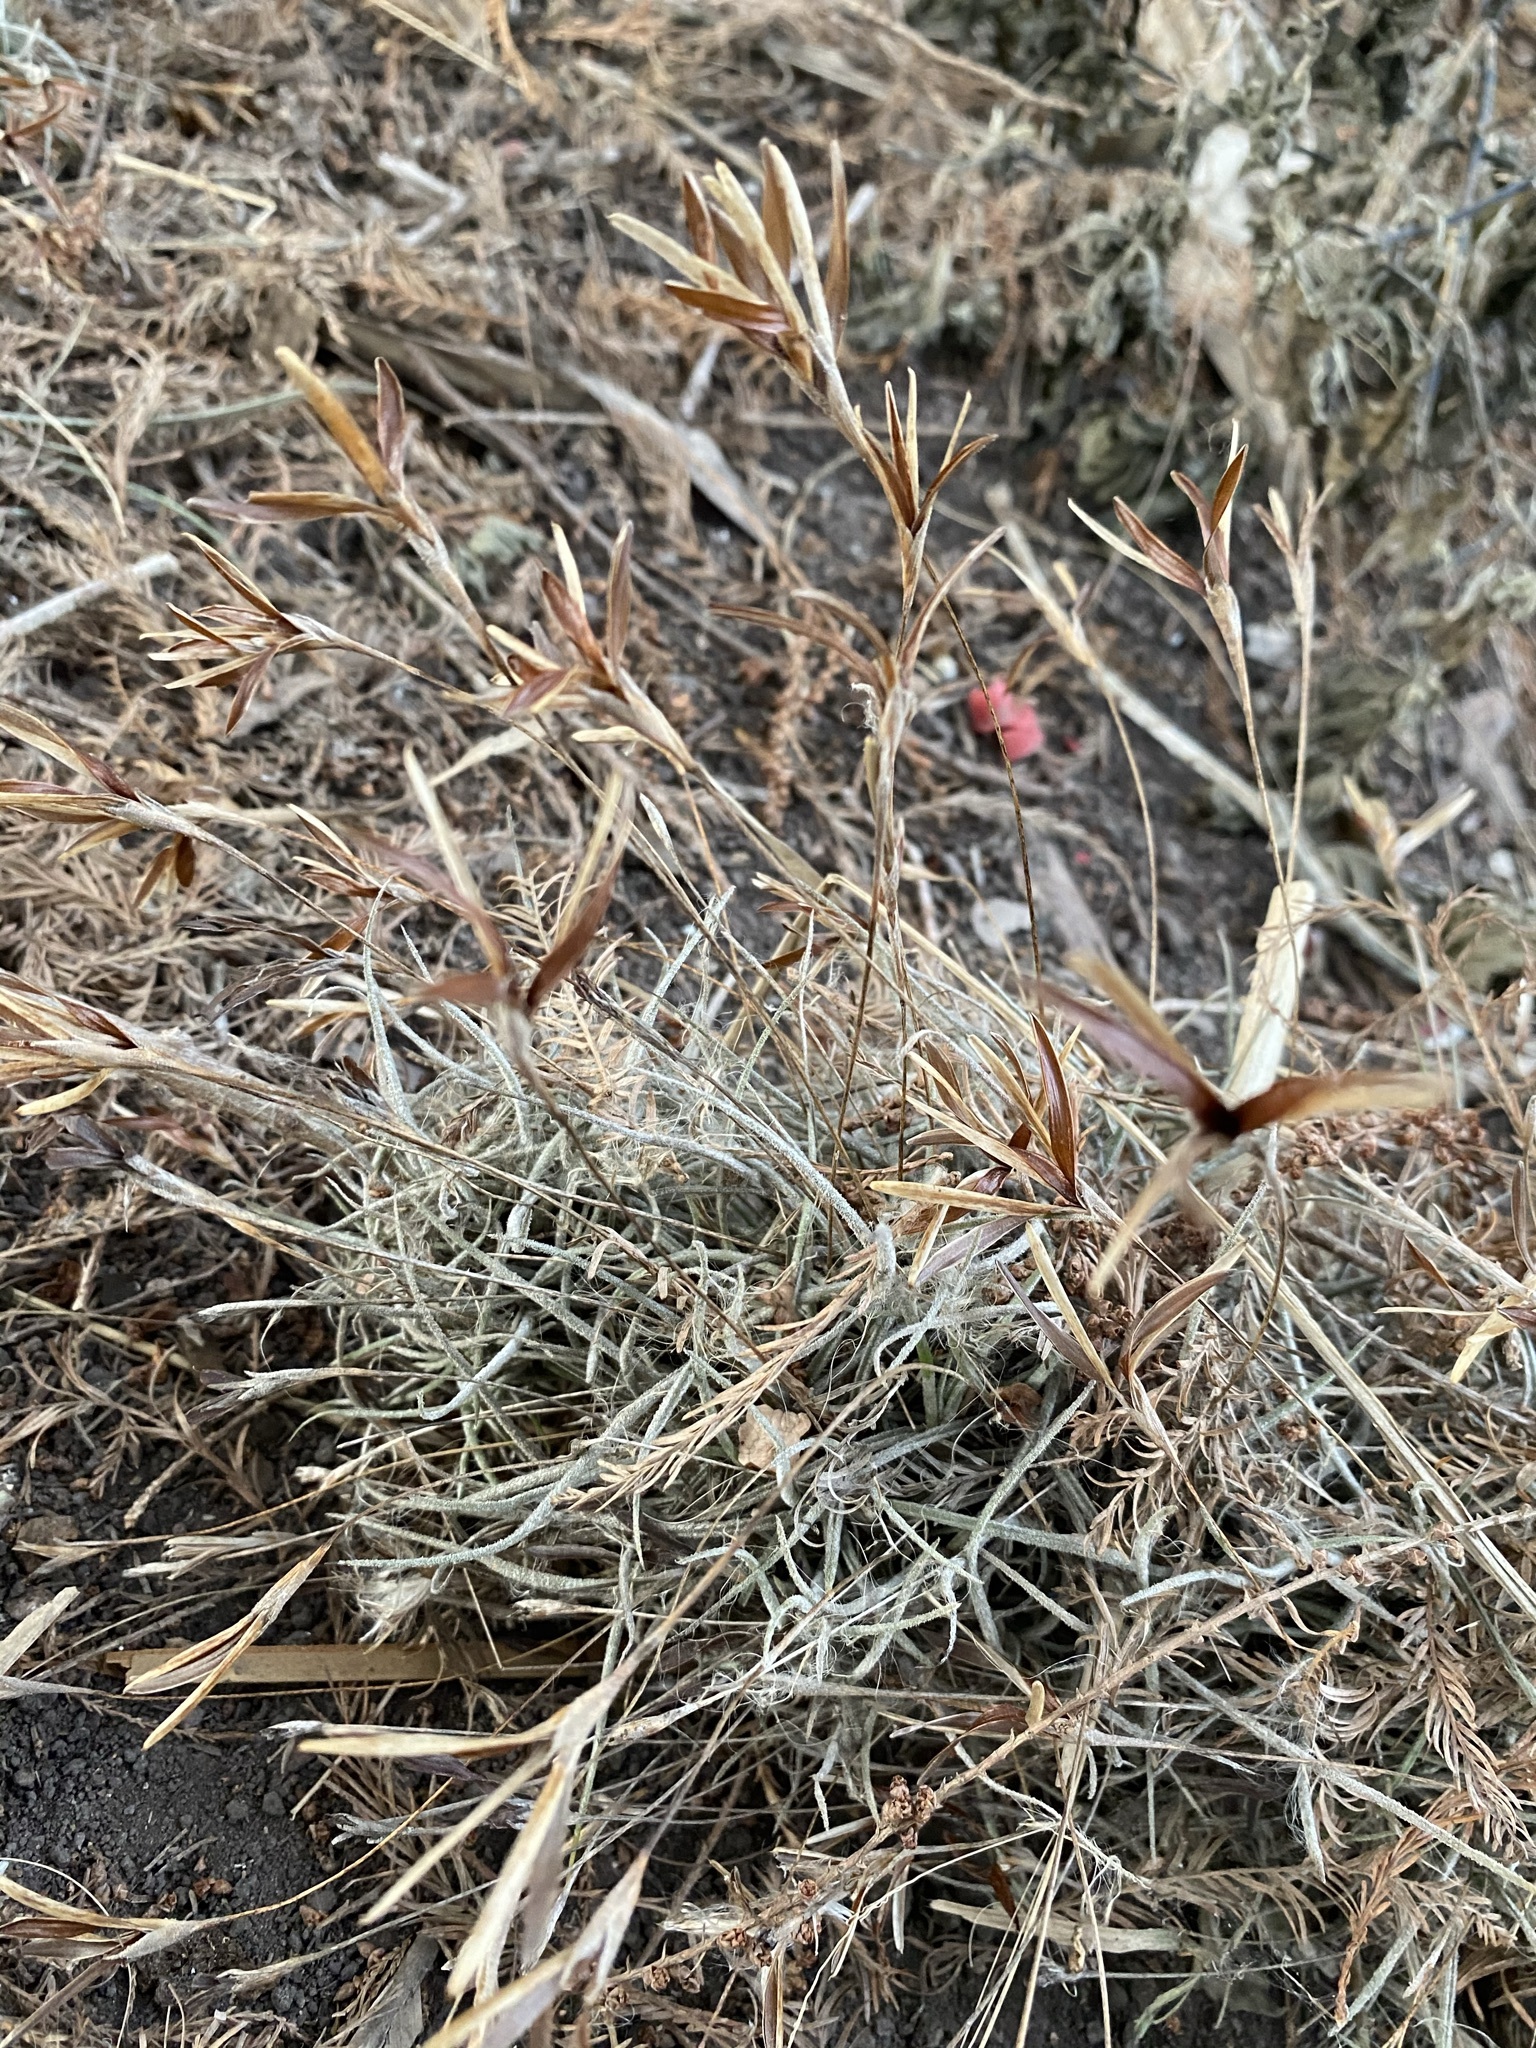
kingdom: Plantae
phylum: Tracheophyta
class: Liliopsida
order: Poales
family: Bromeliaceae
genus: Tillandsia
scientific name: Tillandsia recurvata
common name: Small ballmoss
